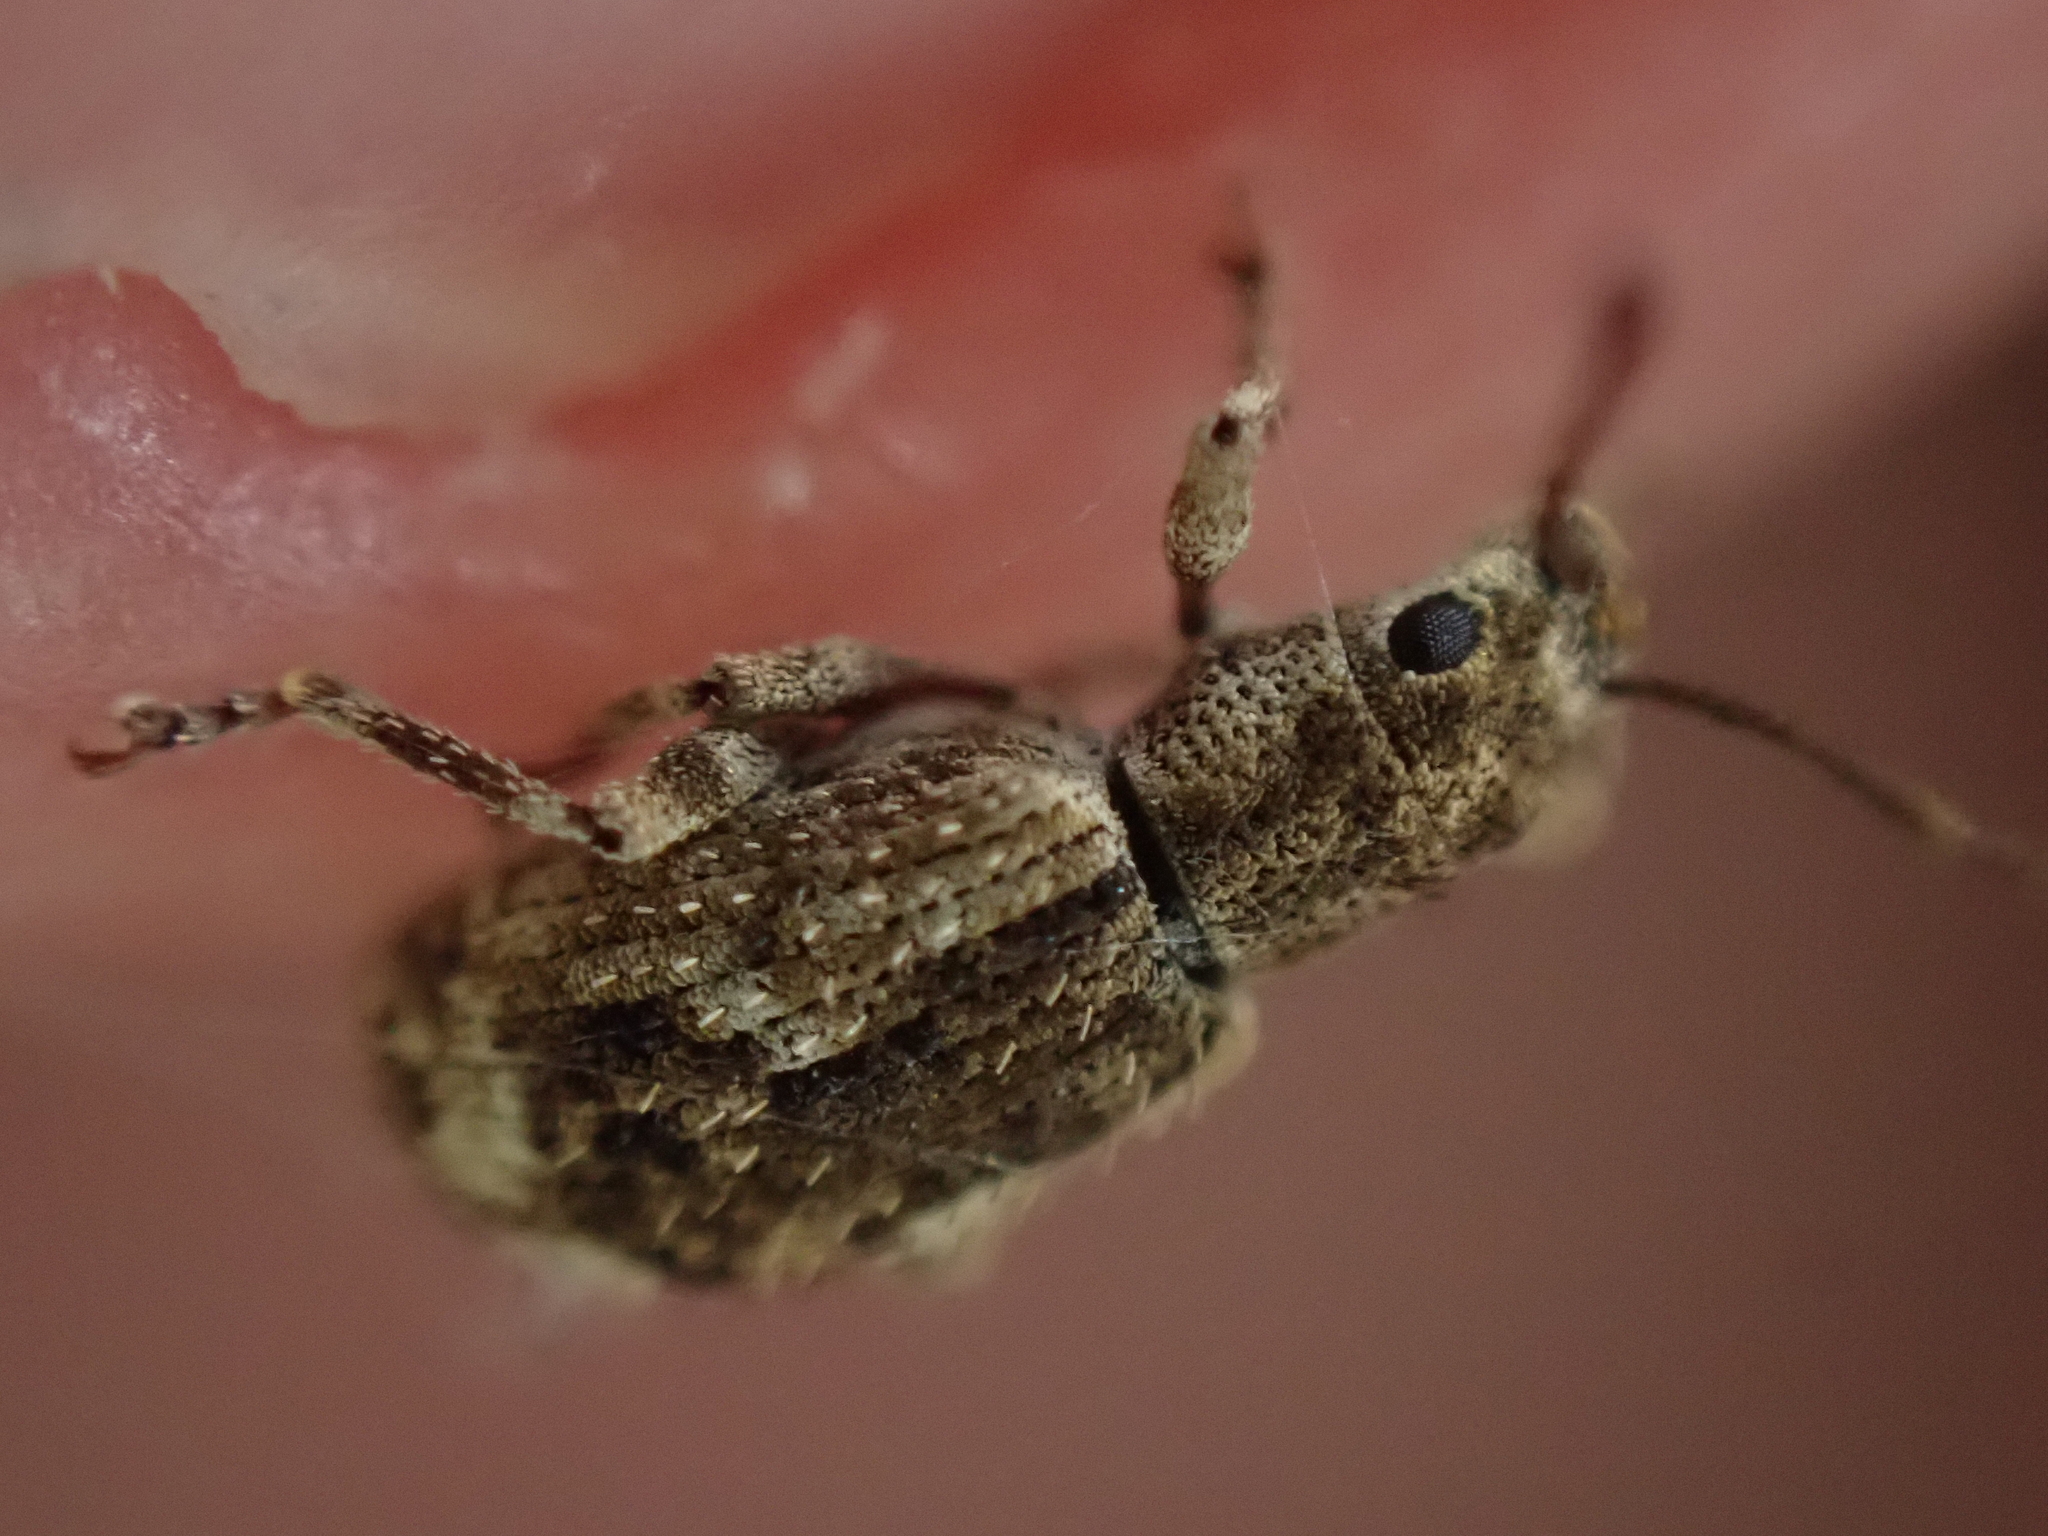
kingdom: Animalia
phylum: Arthropoda
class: Insecta
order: Coleoptera
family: Curculionidae
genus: Pseudoedophrys
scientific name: Pseudoedophrys hilleri
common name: Weevil
